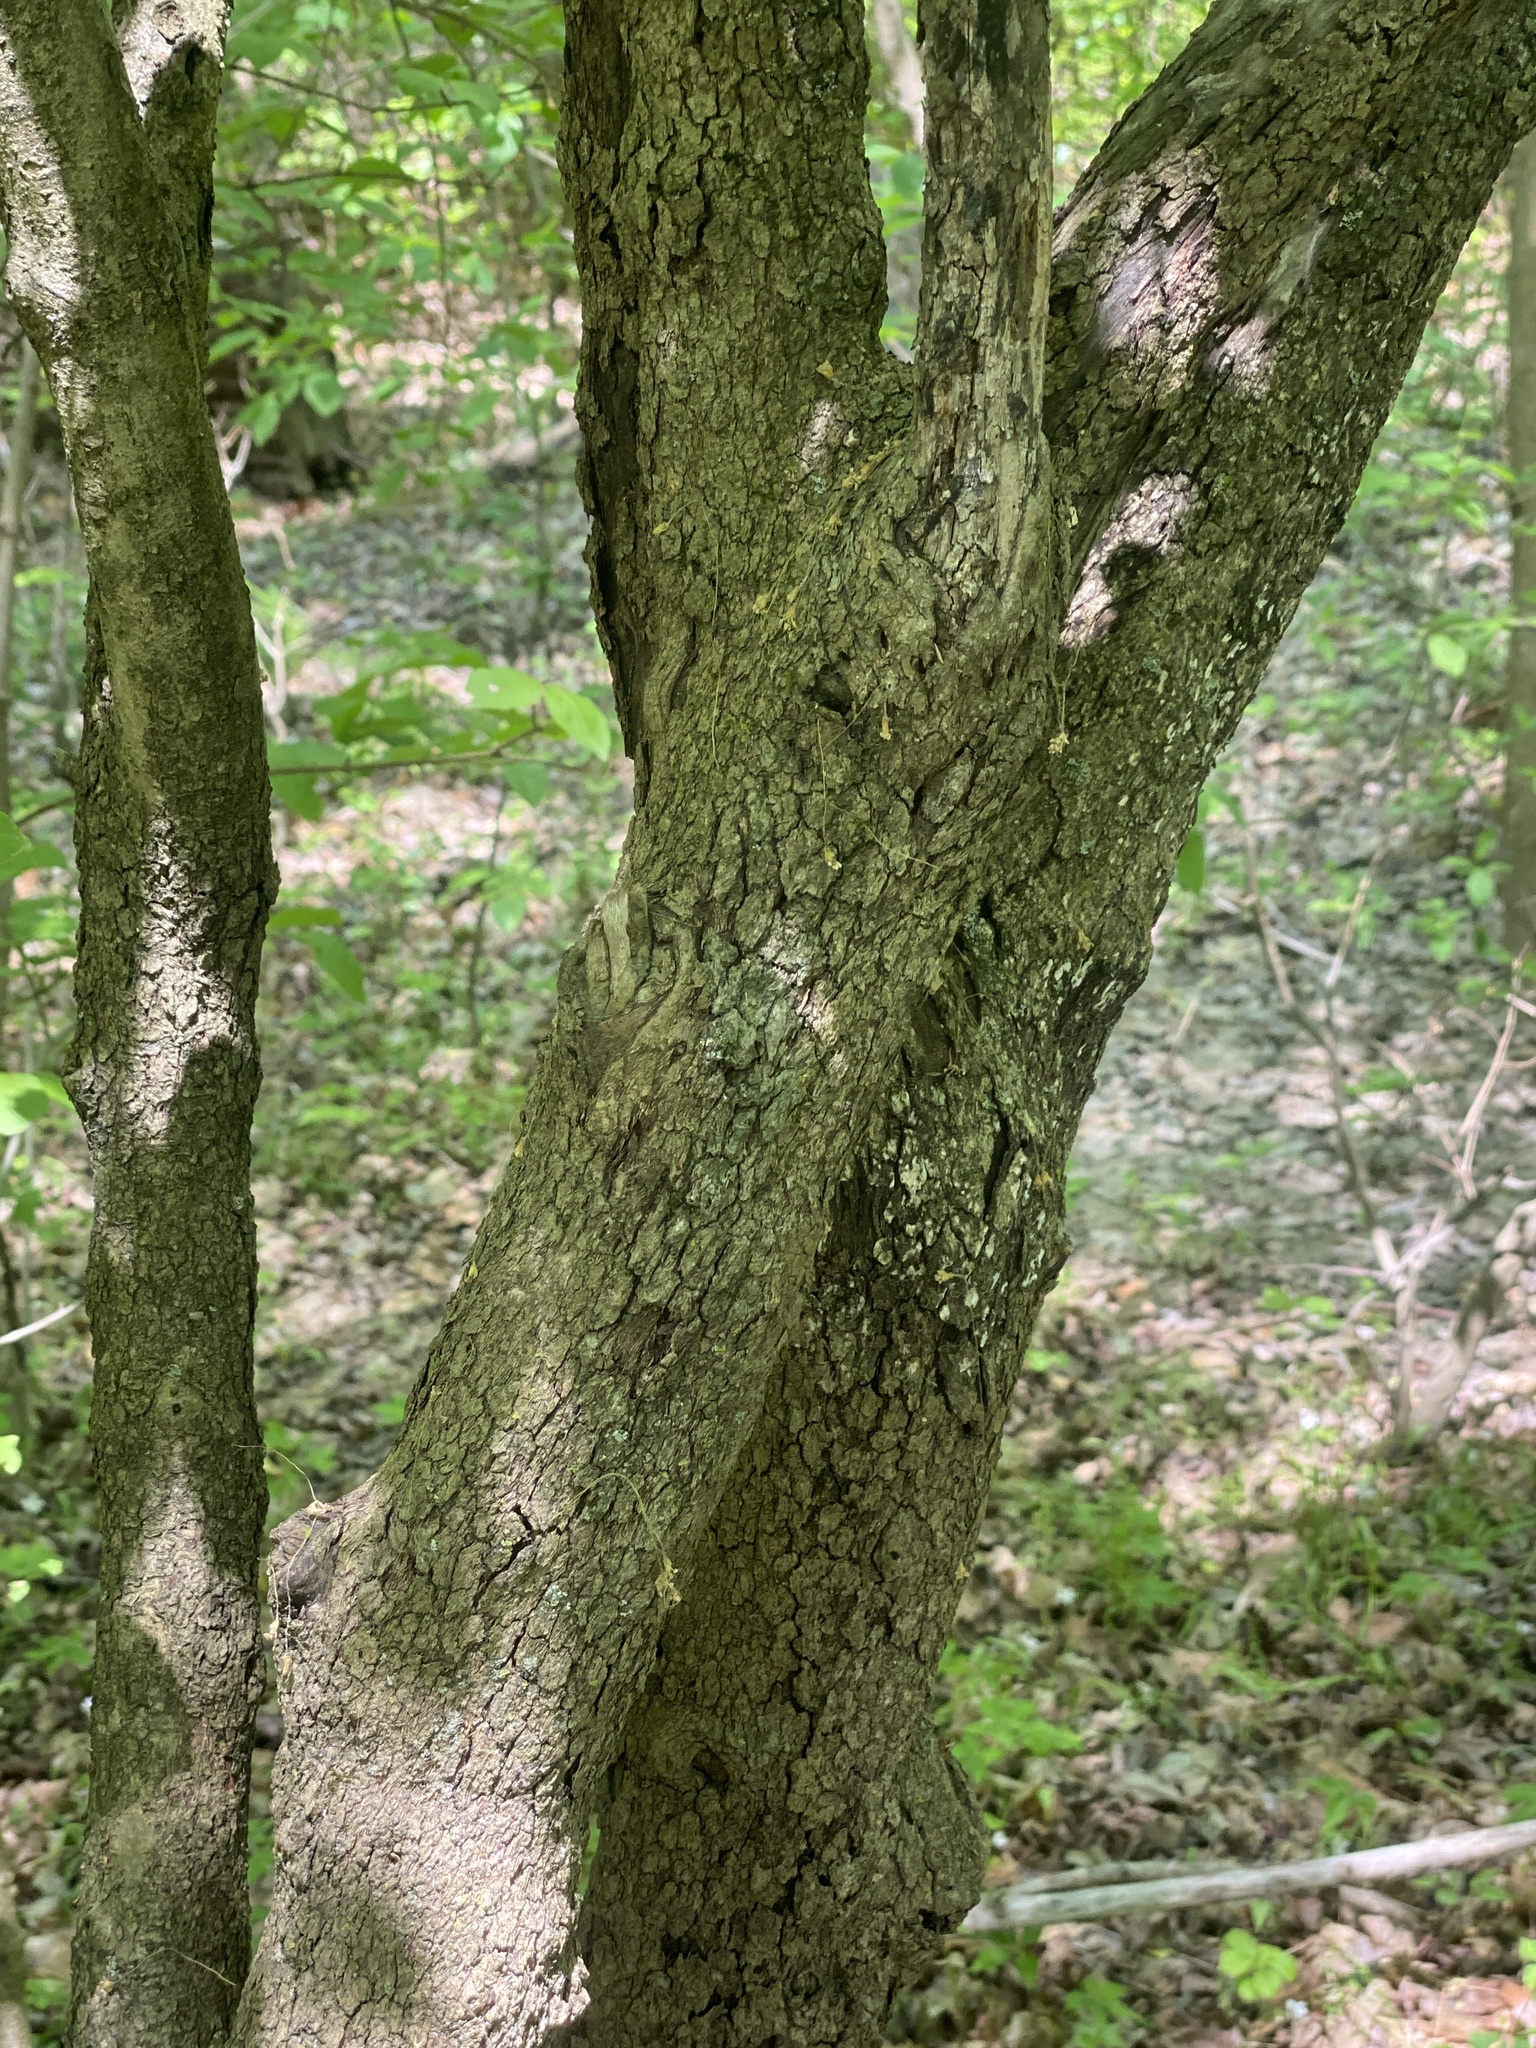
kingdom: Plantae
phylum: Tracheophyta
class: Magnoliopsida
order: Dipsacales
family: Viburnaceae
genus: Viburnum
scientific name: Viburnum prunifolium
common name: Black haw
